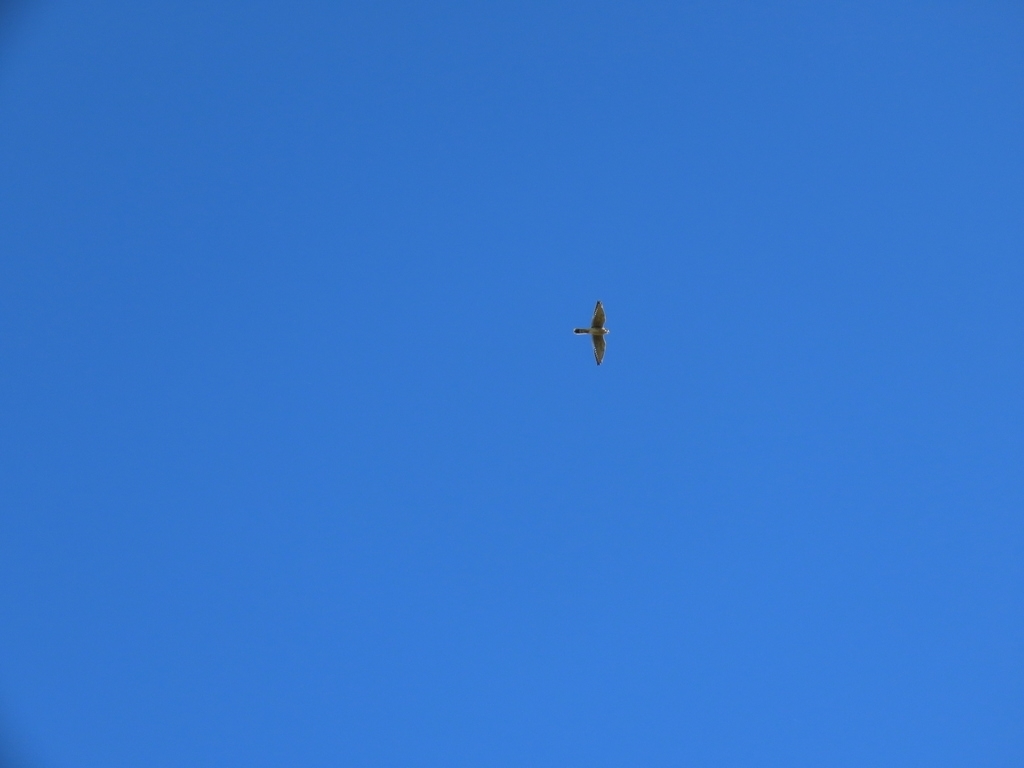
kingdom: Animalia
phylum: Chordata
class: Aves
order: Falconiformes
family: Falconidae
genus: Falco
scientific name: Falco sparverius
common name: American kestrel
